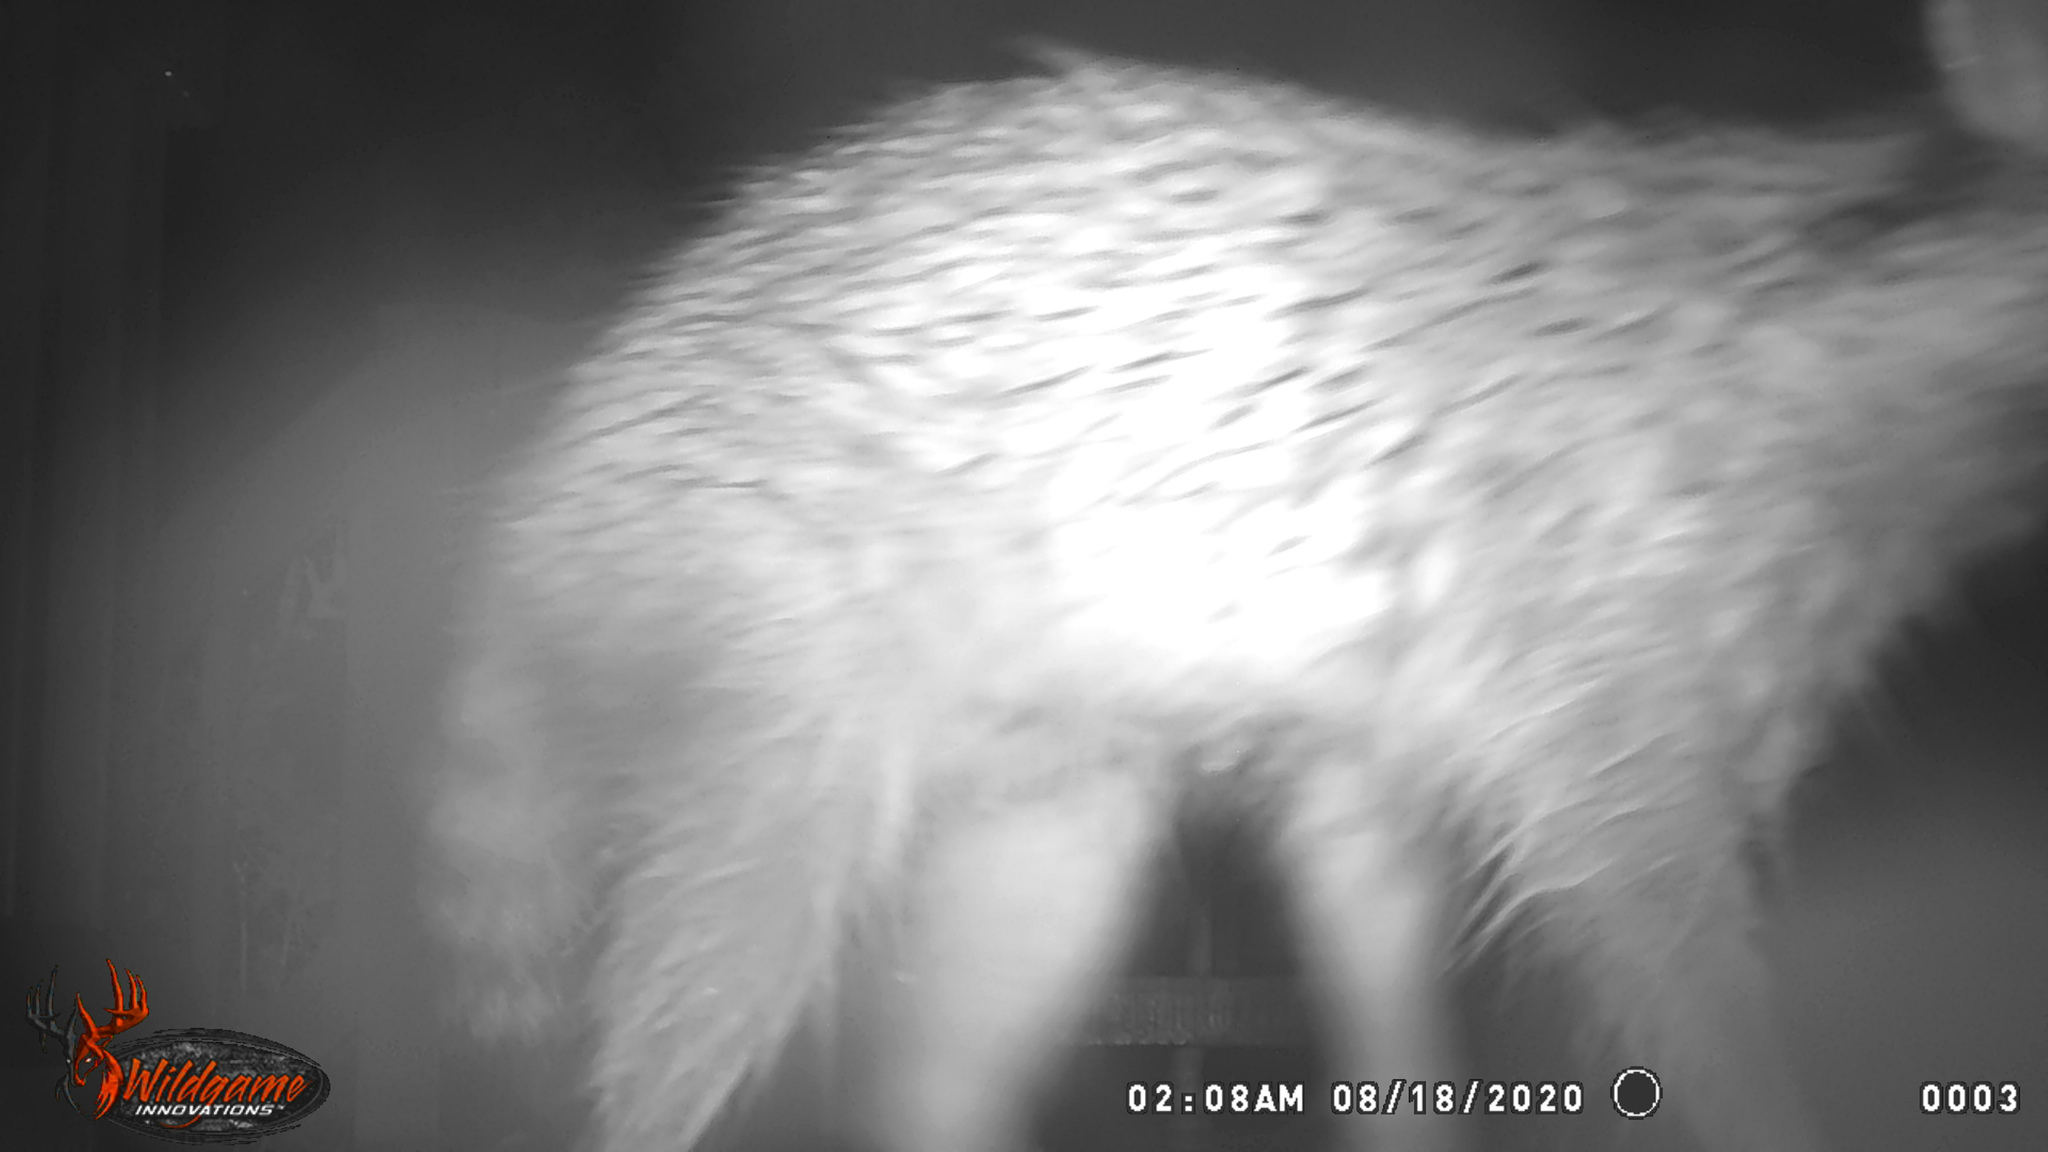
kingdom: Animalia
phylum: Chordata
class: Mammalia
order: Carnivora
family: Procyonidae
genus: Procyon
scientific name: Procyon lotor
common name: Raccoon
